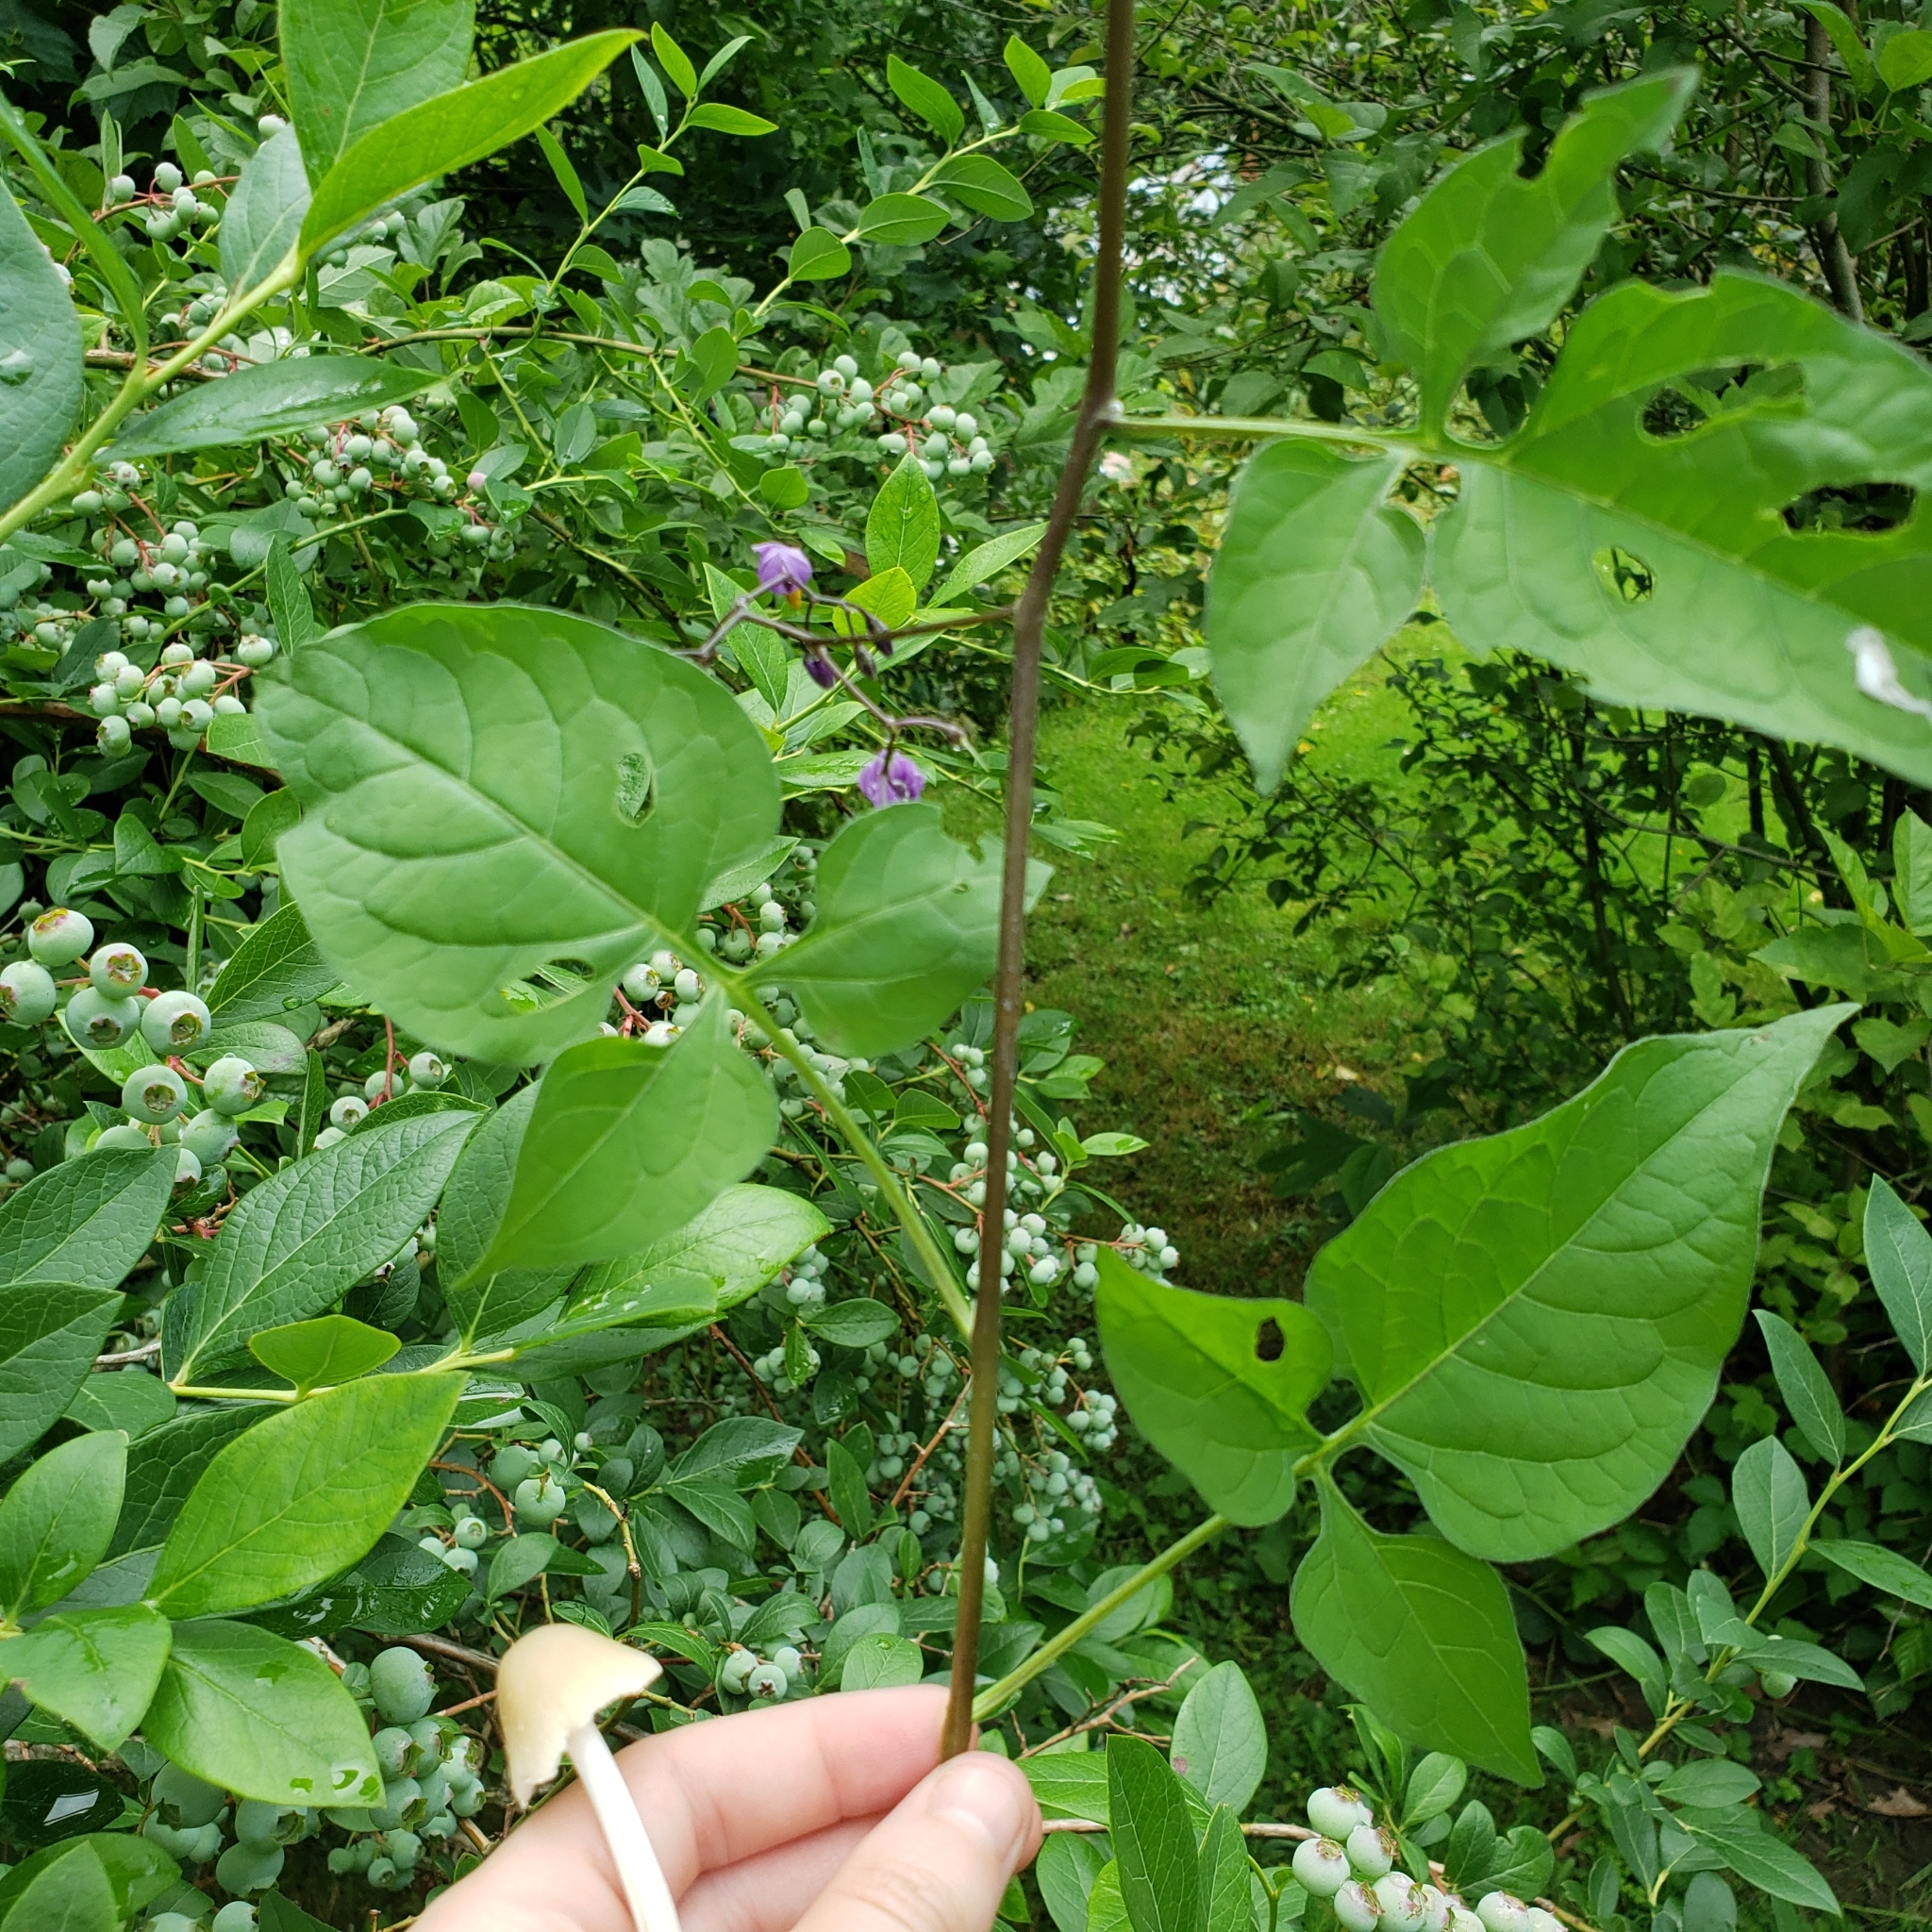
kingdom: Plantae
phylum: Tracheophyta
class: Magnoliopsida
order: Solanales
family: Solanaceae
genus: Solanum
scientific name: Solanum dulcamara
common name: Climbing nightshade
